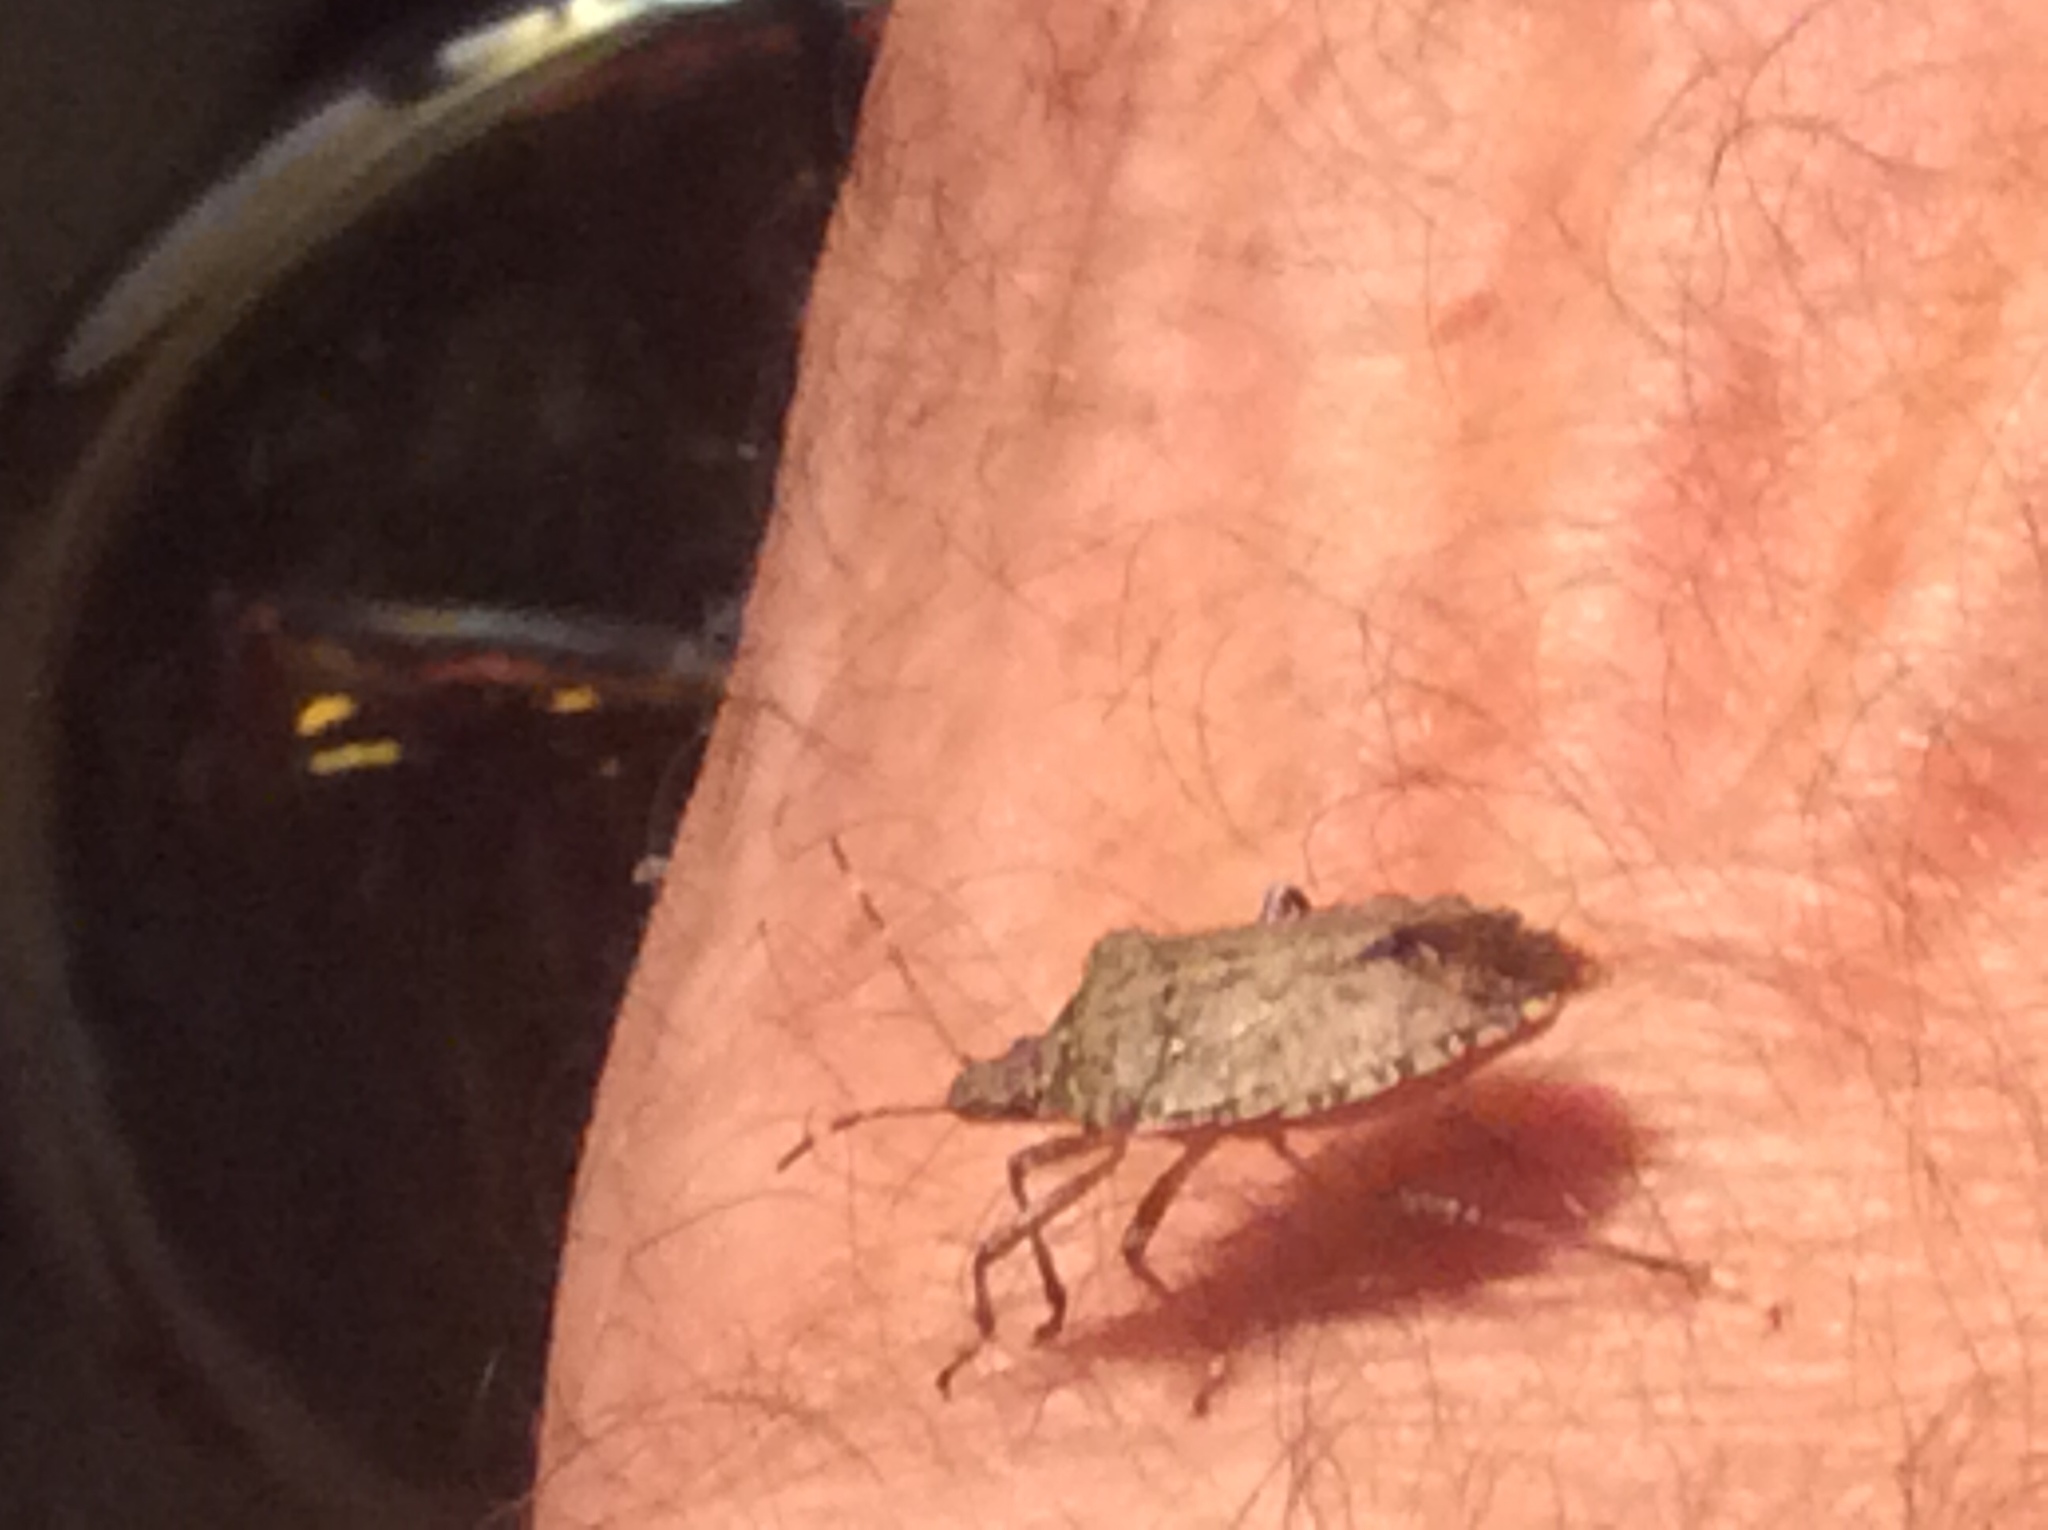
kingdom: Animalia
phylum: Arthropoda
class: Insecta
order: Hemiptera
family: Pentatomidae
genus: Halyomorpha
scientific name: Halyomorpha halys
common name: Brown marmorated stink bug
